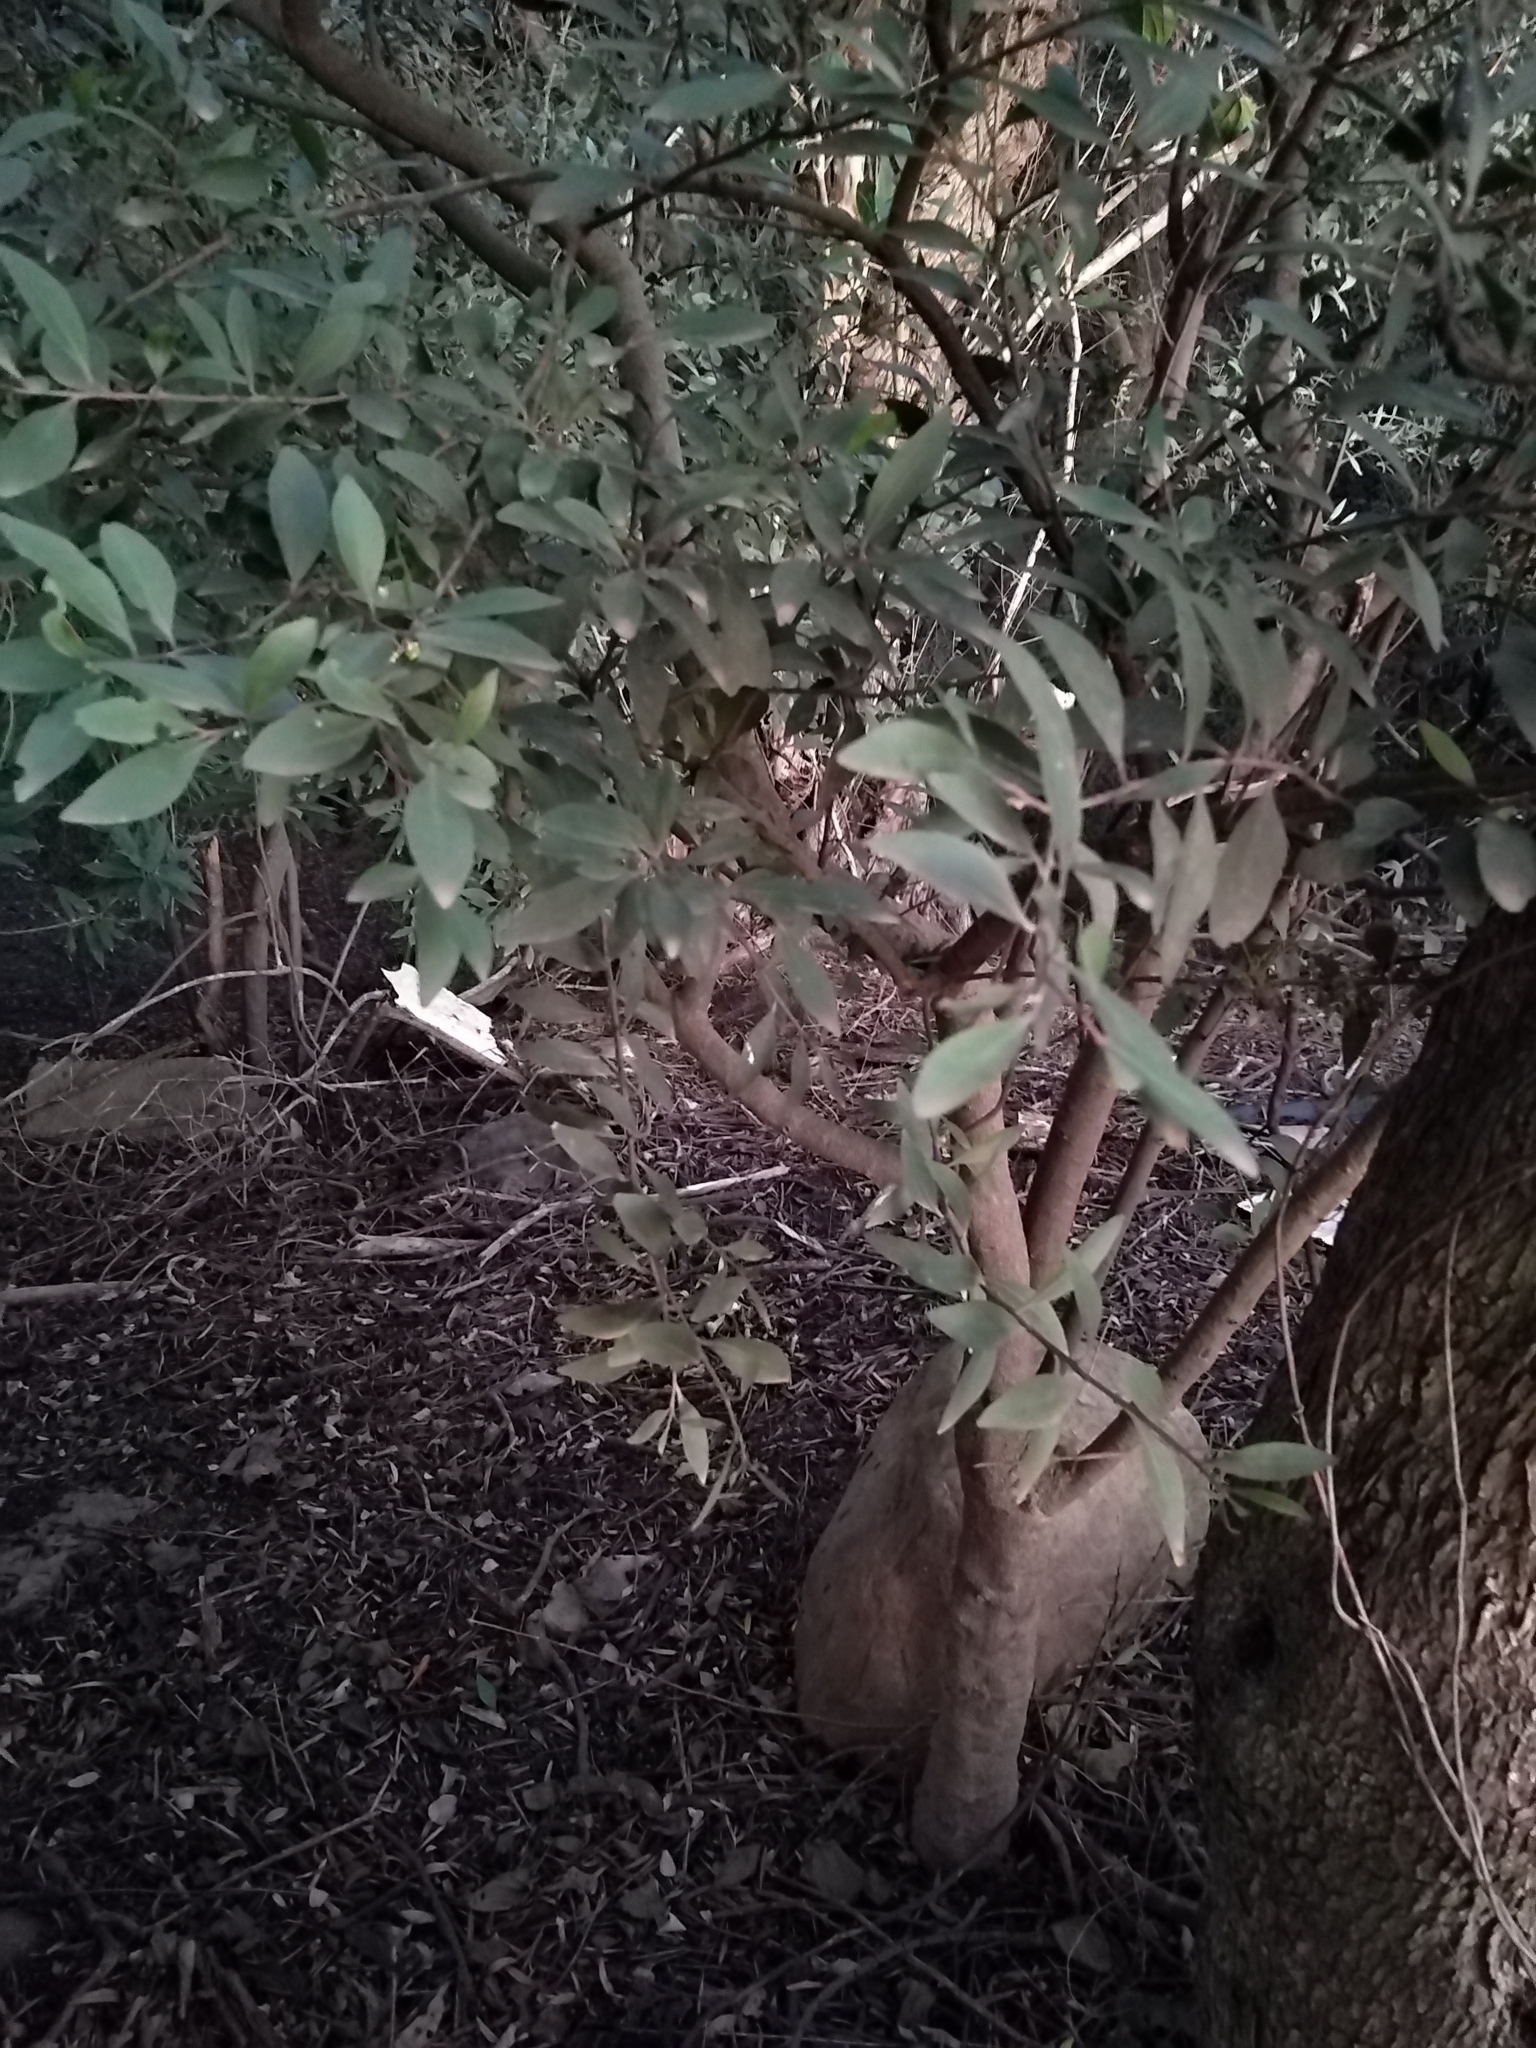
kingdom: Plantae
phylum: Tracheophyta
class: Magnoliopsida
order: Celastrales
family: Celastraceae
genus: Gymnosporia
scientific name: Gymnosporia laurina
